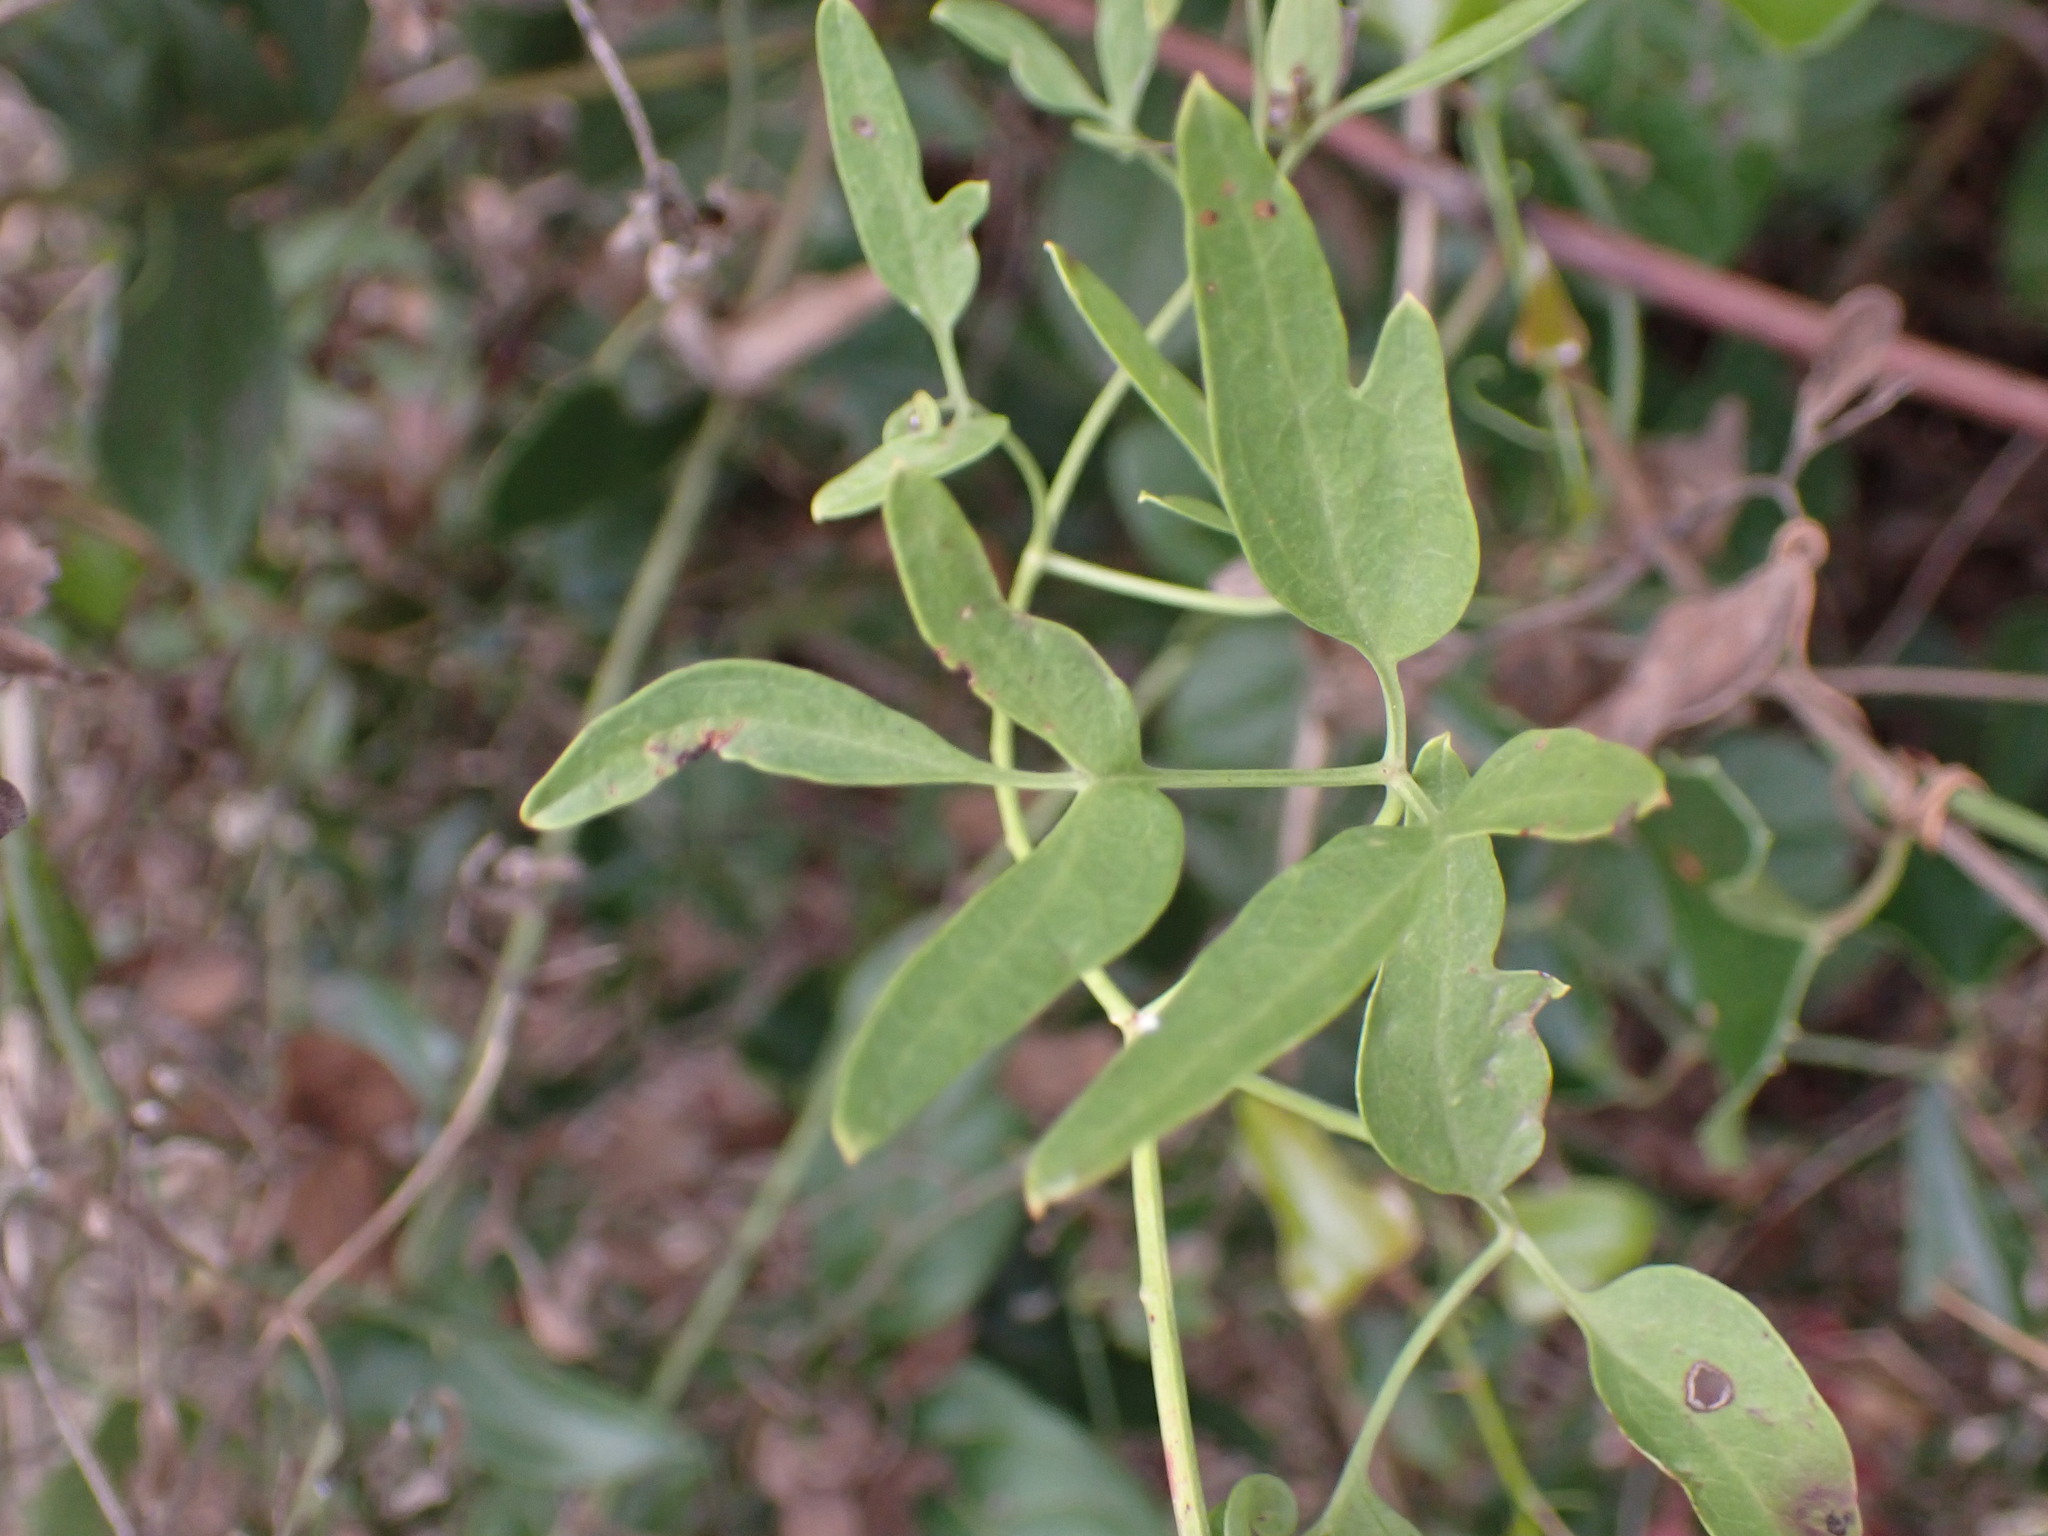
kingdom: Plantae
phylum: Tracheophyta
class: Magnoliopsida
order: Ranunculales
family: Ranunculaceae
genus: Clematis
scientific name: Clematis flammula
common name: Virgin's-bower
